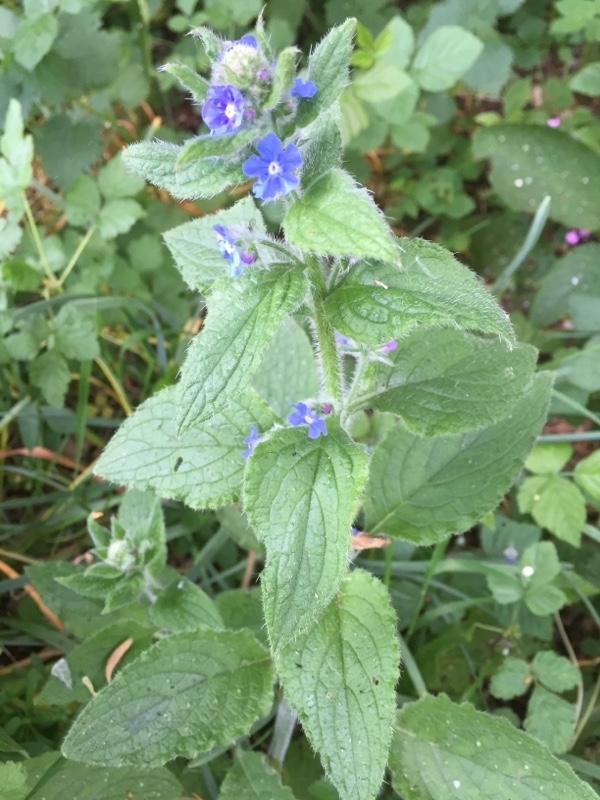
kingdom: Plantae
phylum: Tracheophyta
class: Magnoliopsida
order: Boraginales
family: Boraginaceae
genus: Pentaglottis
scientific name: Pentaglottis sempervirens
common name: Green alkanet
